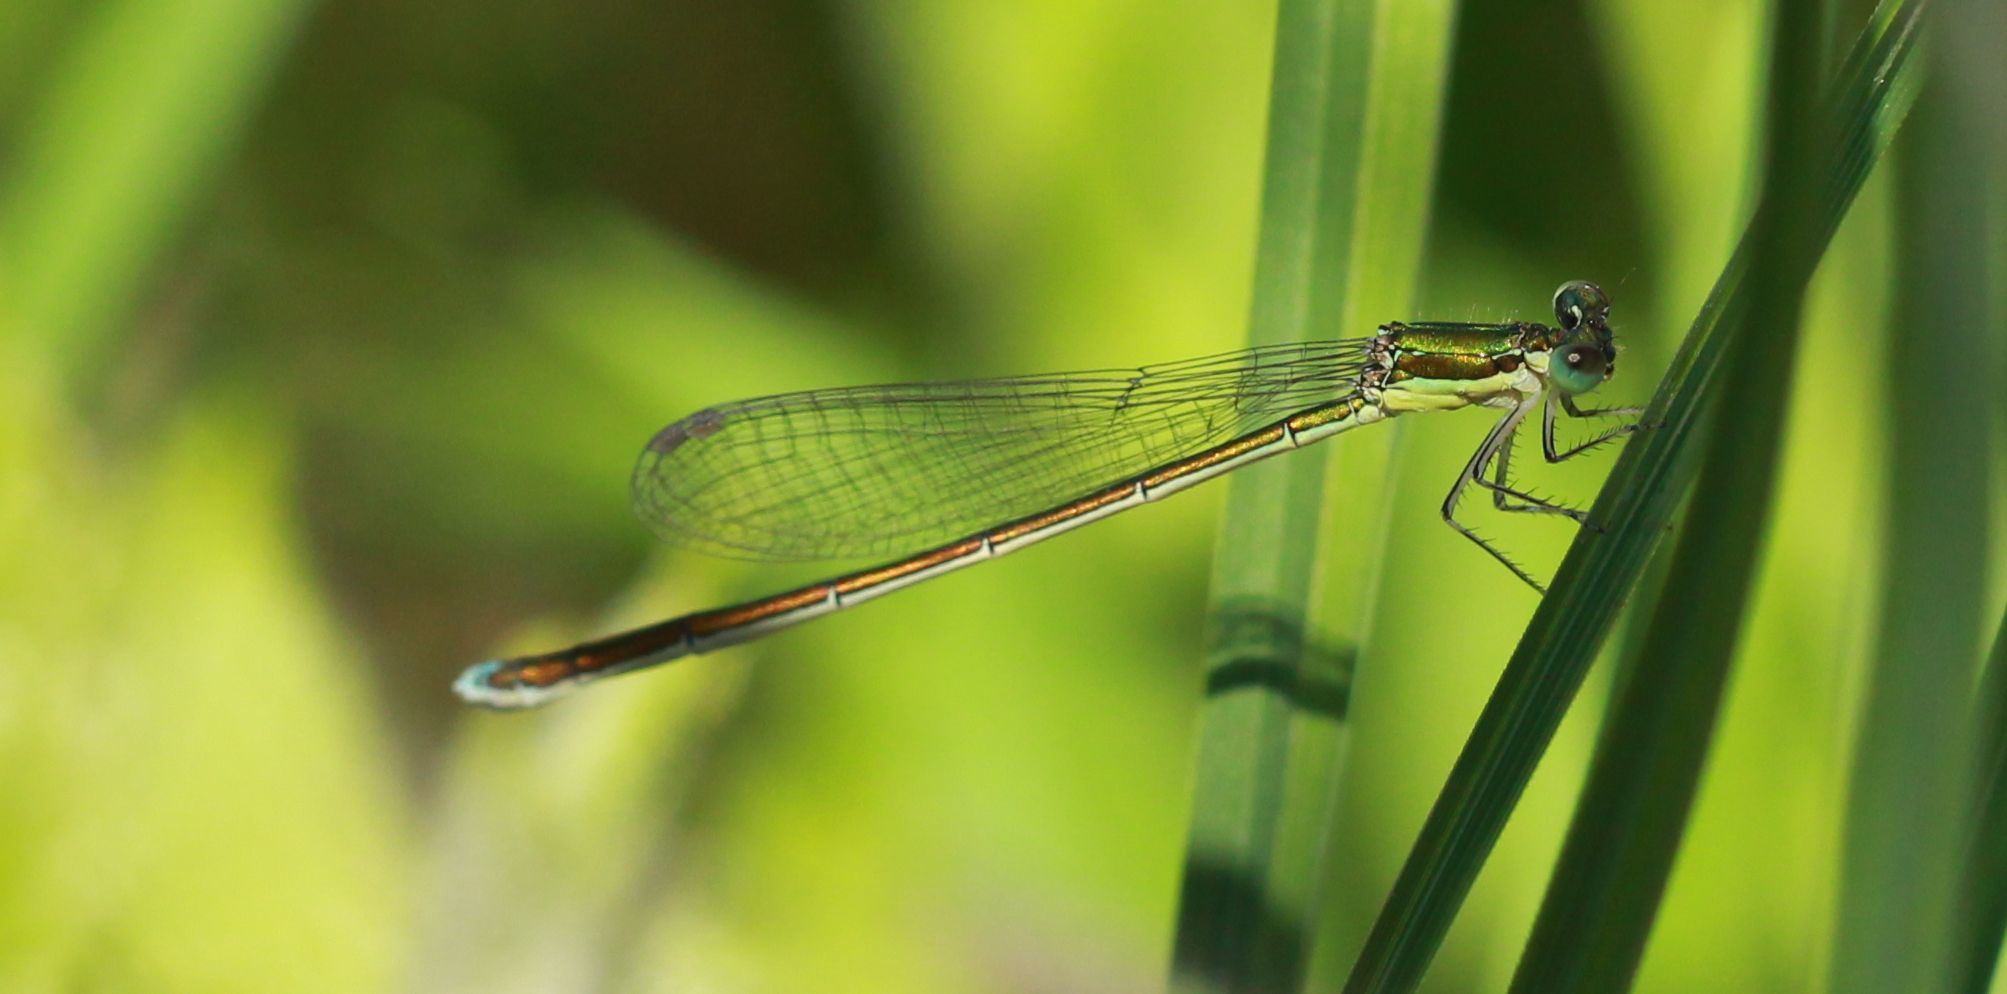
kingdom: Animalia
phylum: Arthropoda
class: Insecta
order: Odonata
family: Coenagrionidae
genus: Nehalennia
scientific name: Nehalennia irene
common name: Sedge sprite
